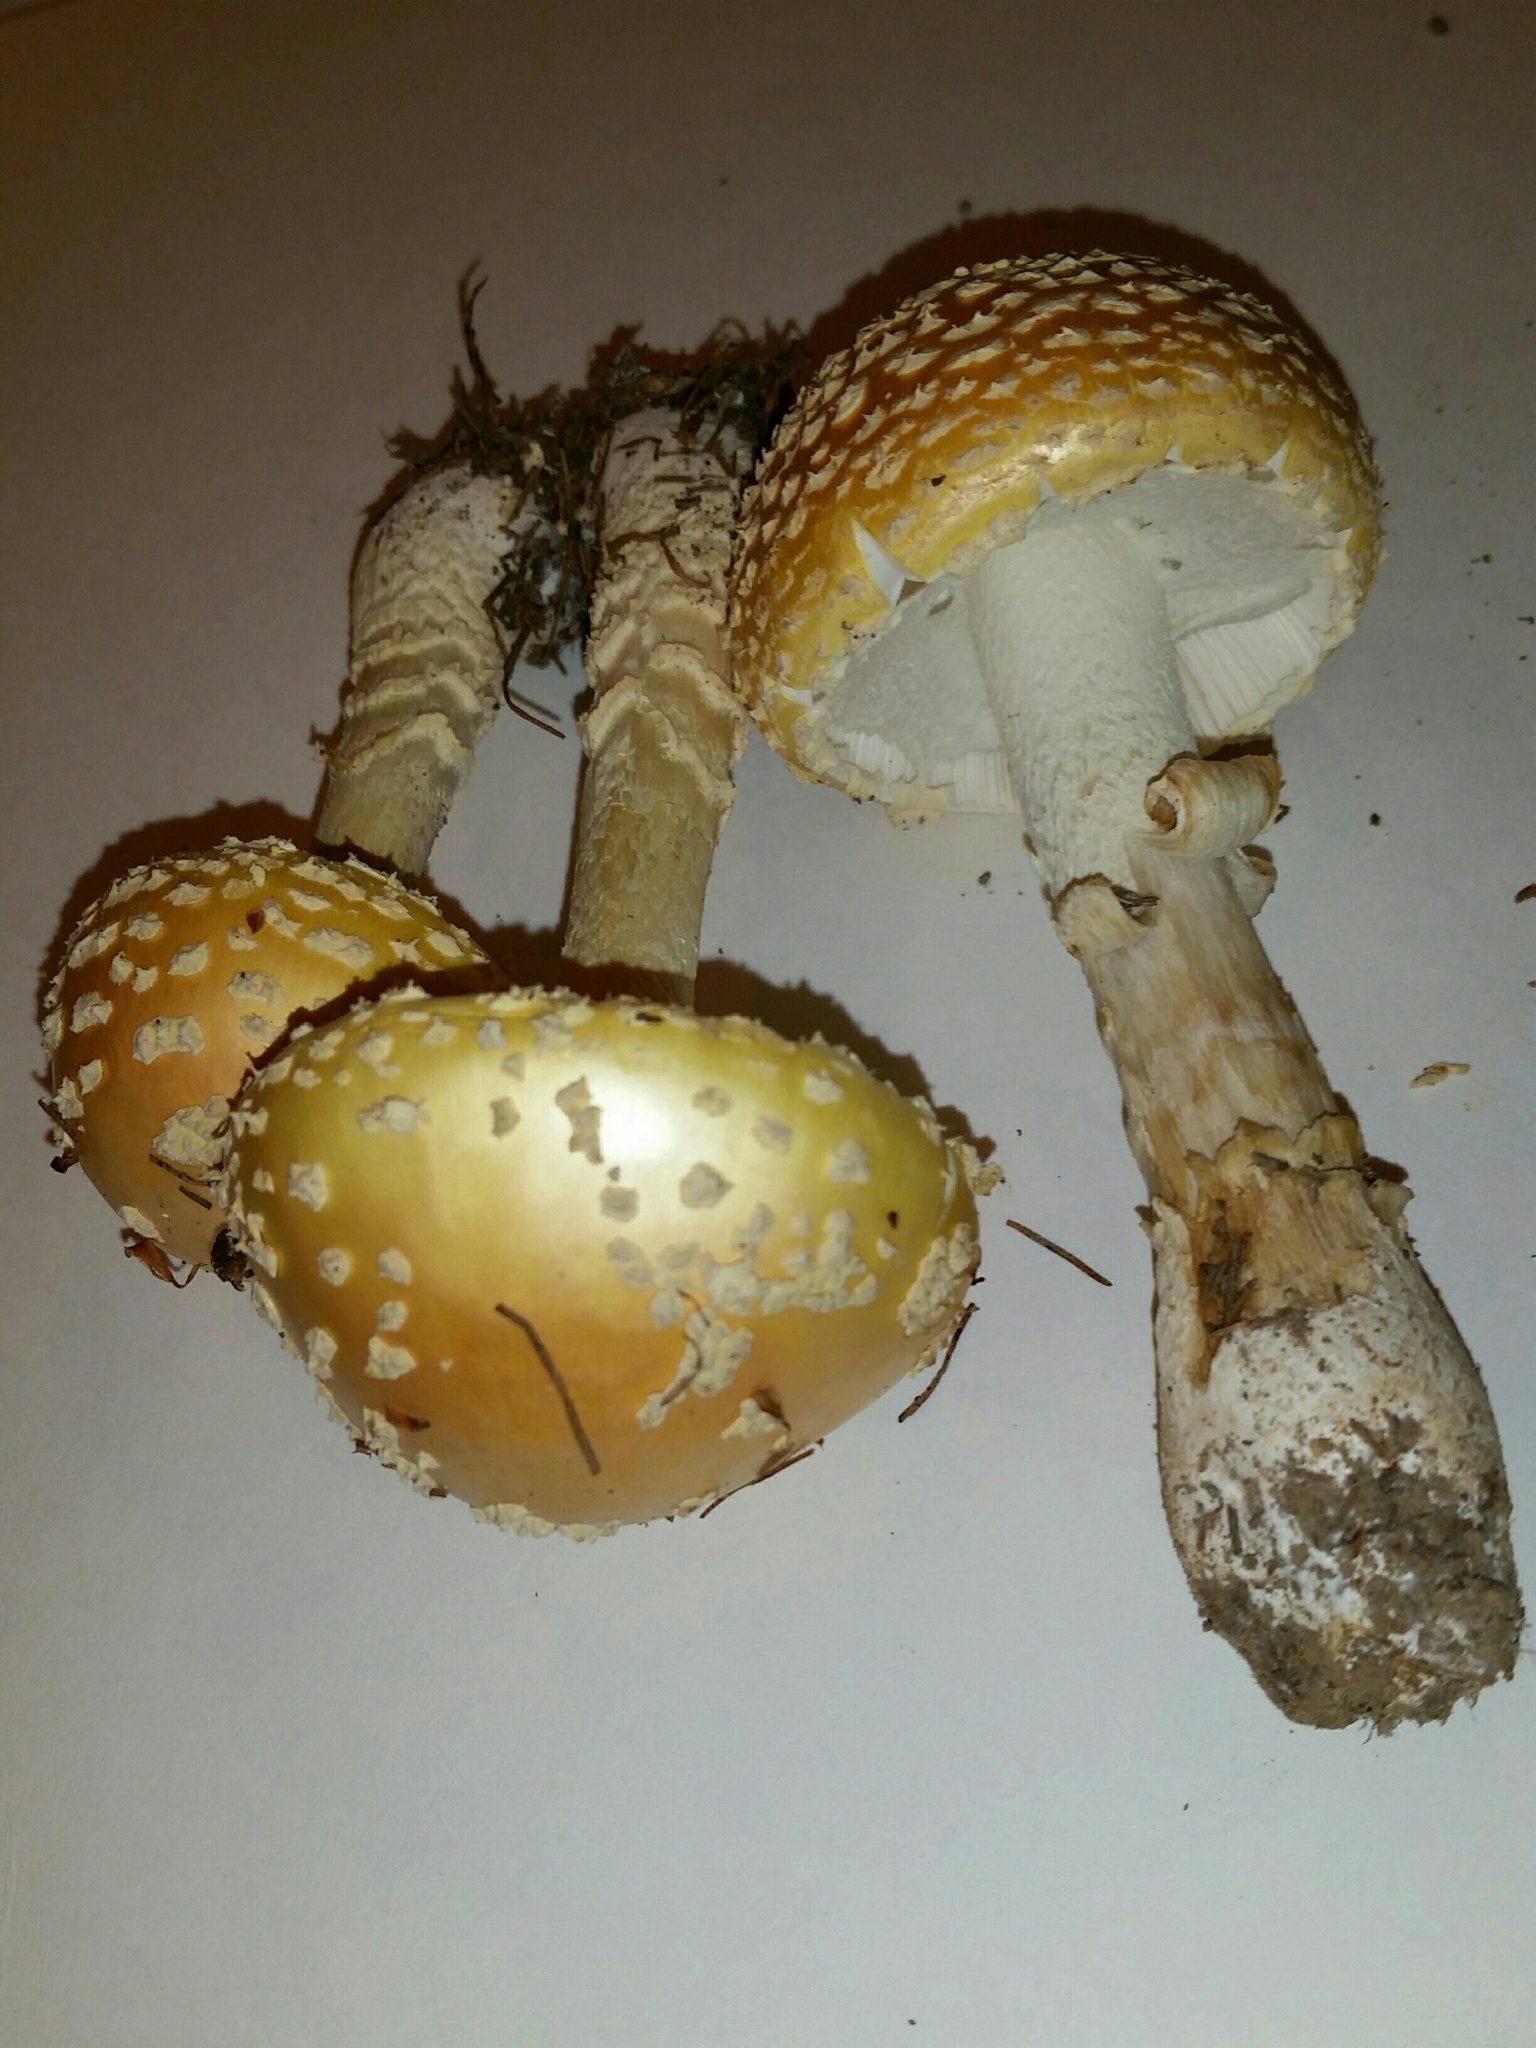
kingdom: Fungi
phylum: Basidiomycota
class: Agaricomycetes
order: Agaricales
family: Amanitaceae
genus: Amanita
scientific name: Amanita muscaria
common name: Fly agaric
